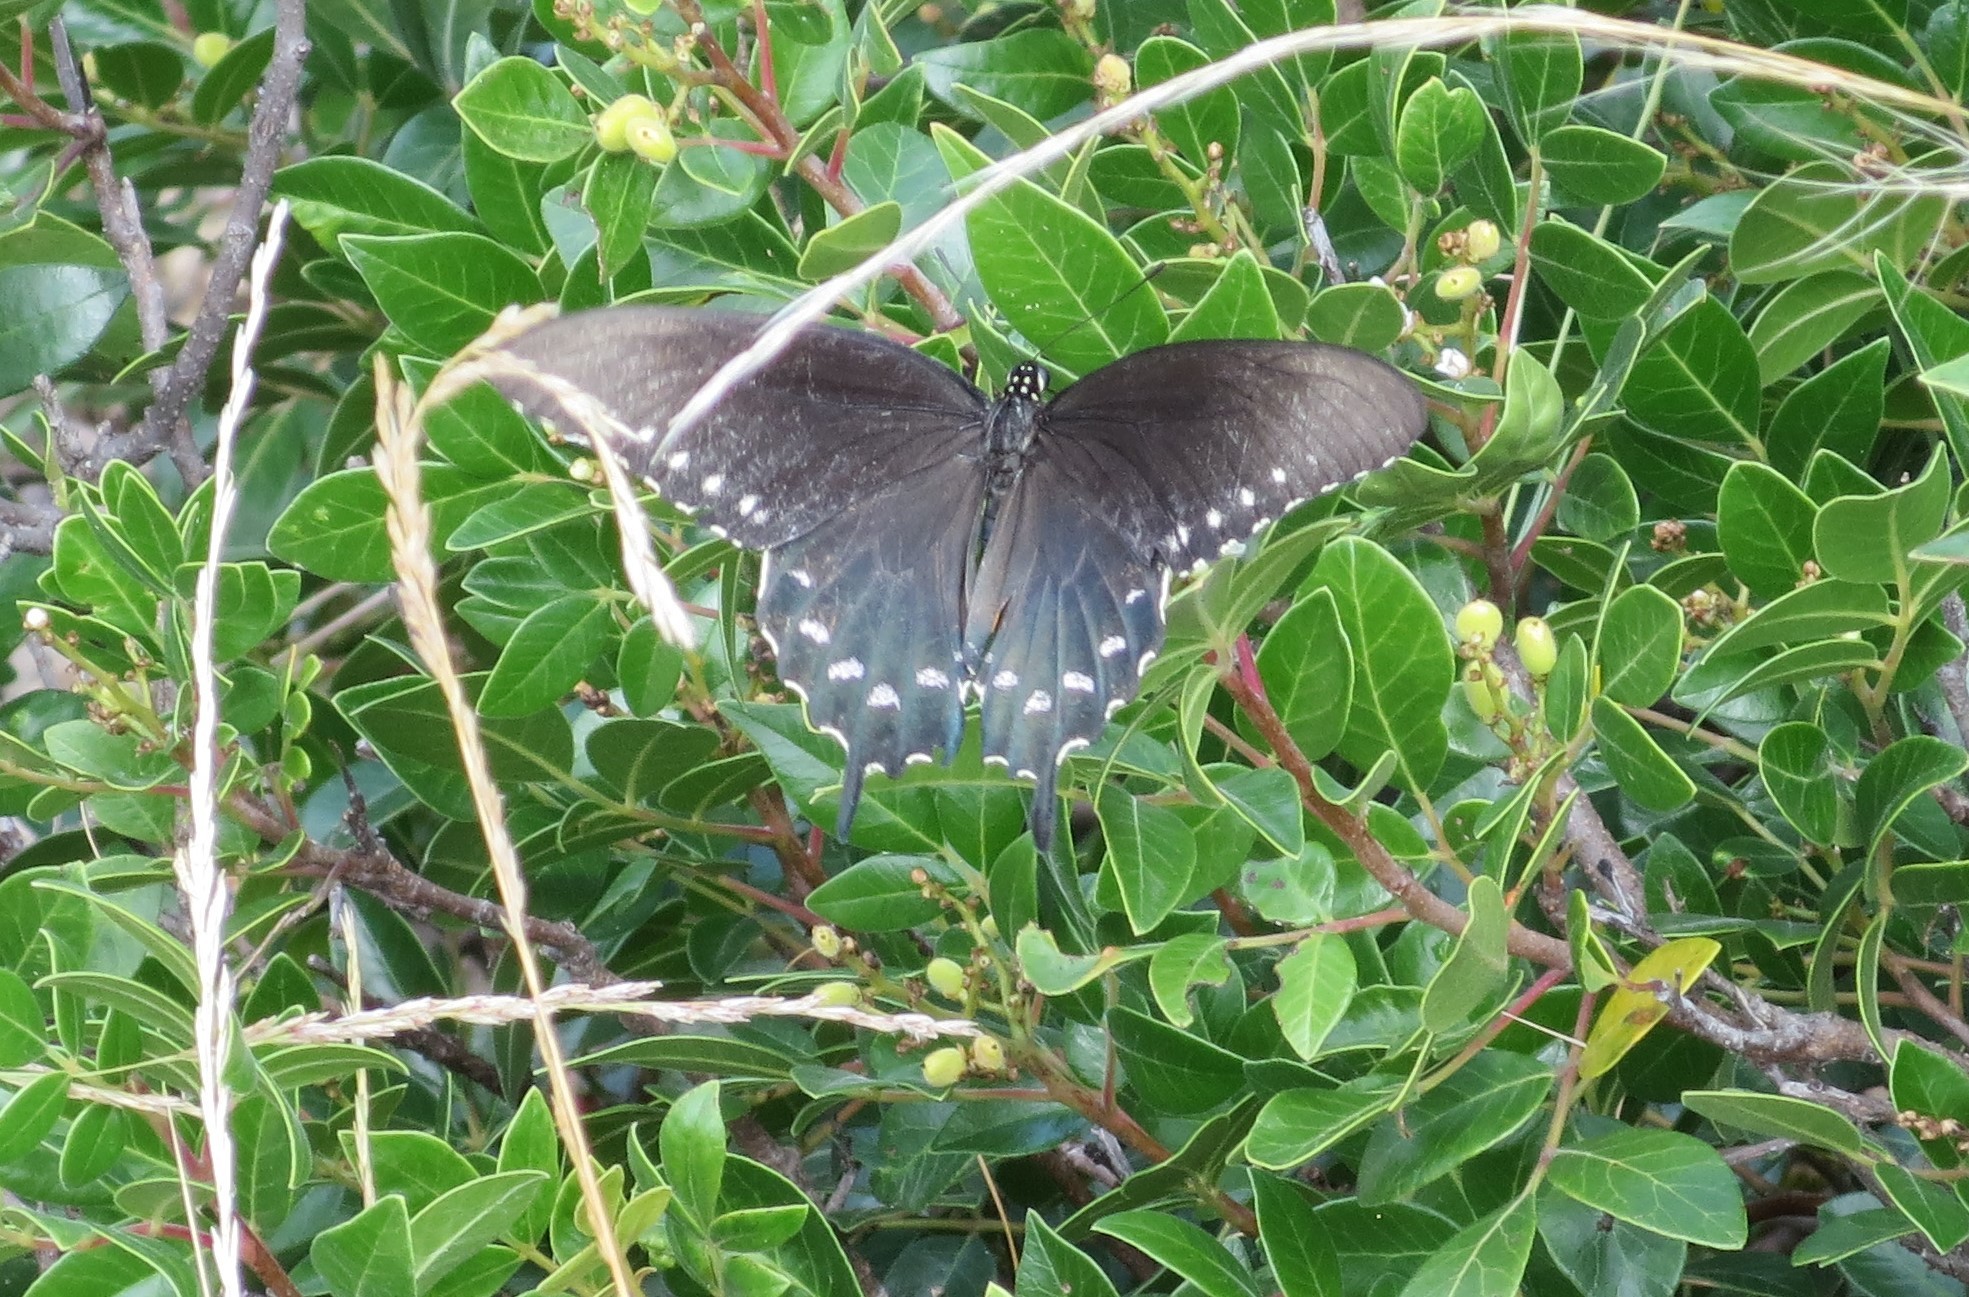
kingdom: Animalia
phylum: Arthropoda
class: Insecta
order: Lepidoptera
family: Papilionidae
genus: Battus
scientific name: Battus philenor
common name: Pipevine swallowtail
